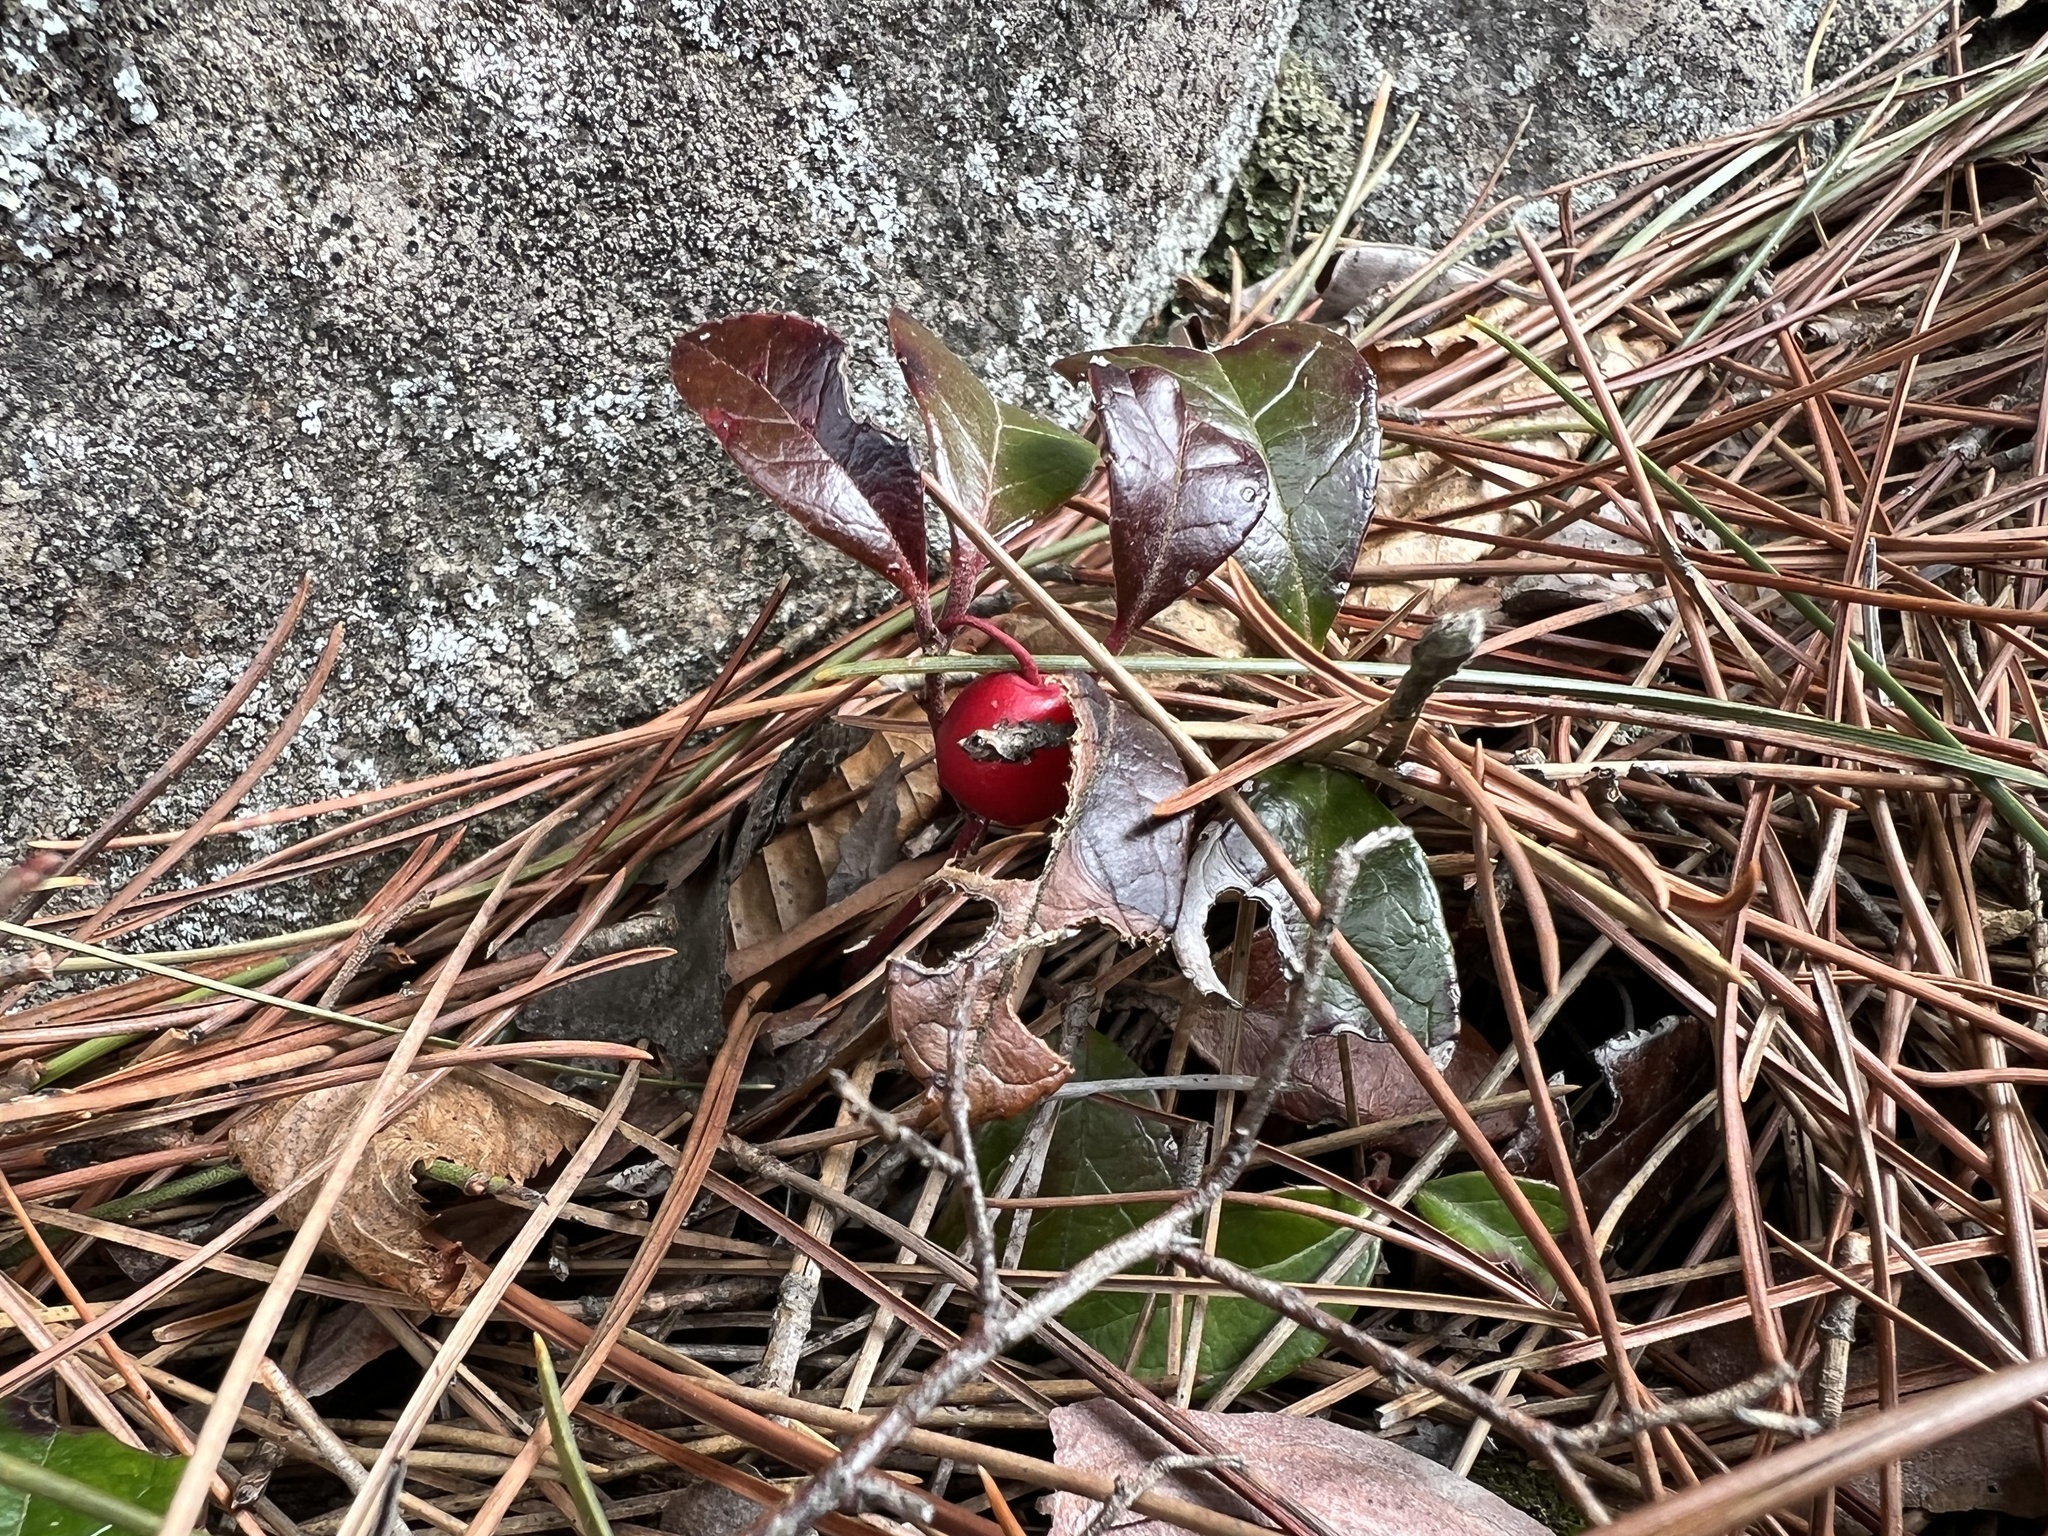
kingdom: Plantae
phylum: Tracheophyta
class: Magnoliopsida
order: Ericales
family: Ericaceae
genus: Gaultheria
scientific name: Gaultheria procumbens
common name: Checkerberry
